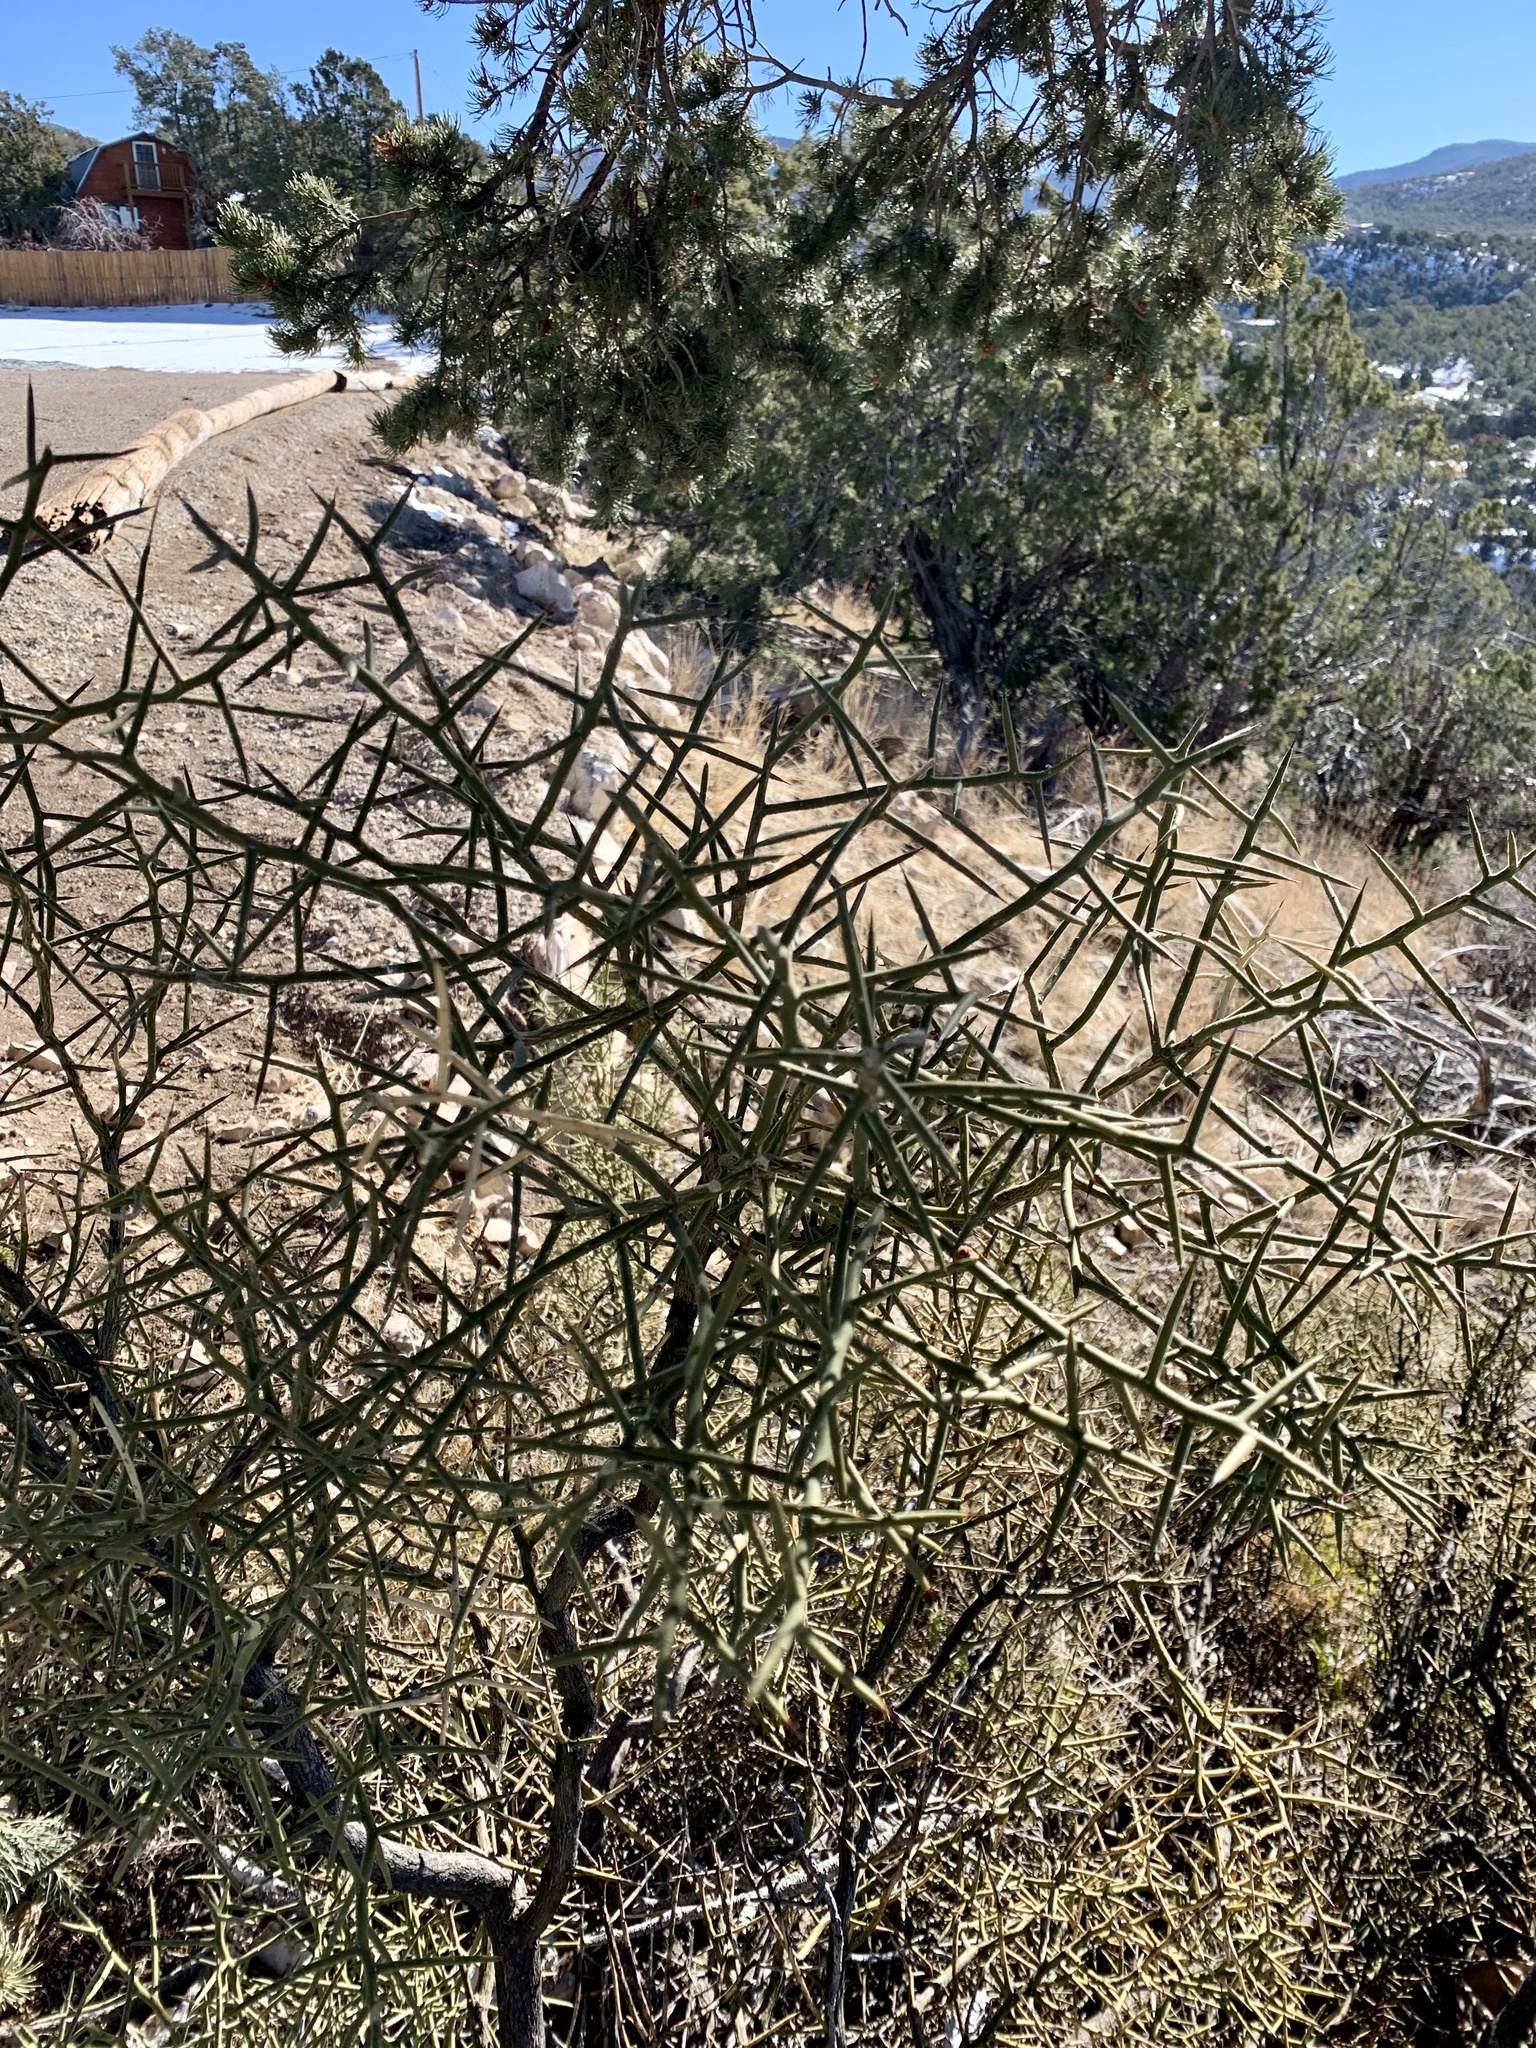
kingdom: Plantae
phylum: Tracheophyta
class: Magnoliopsida
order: Brassicales
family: Koeberliniaceae
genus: Koeberlinia
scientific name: Koeberlinia spinosa
